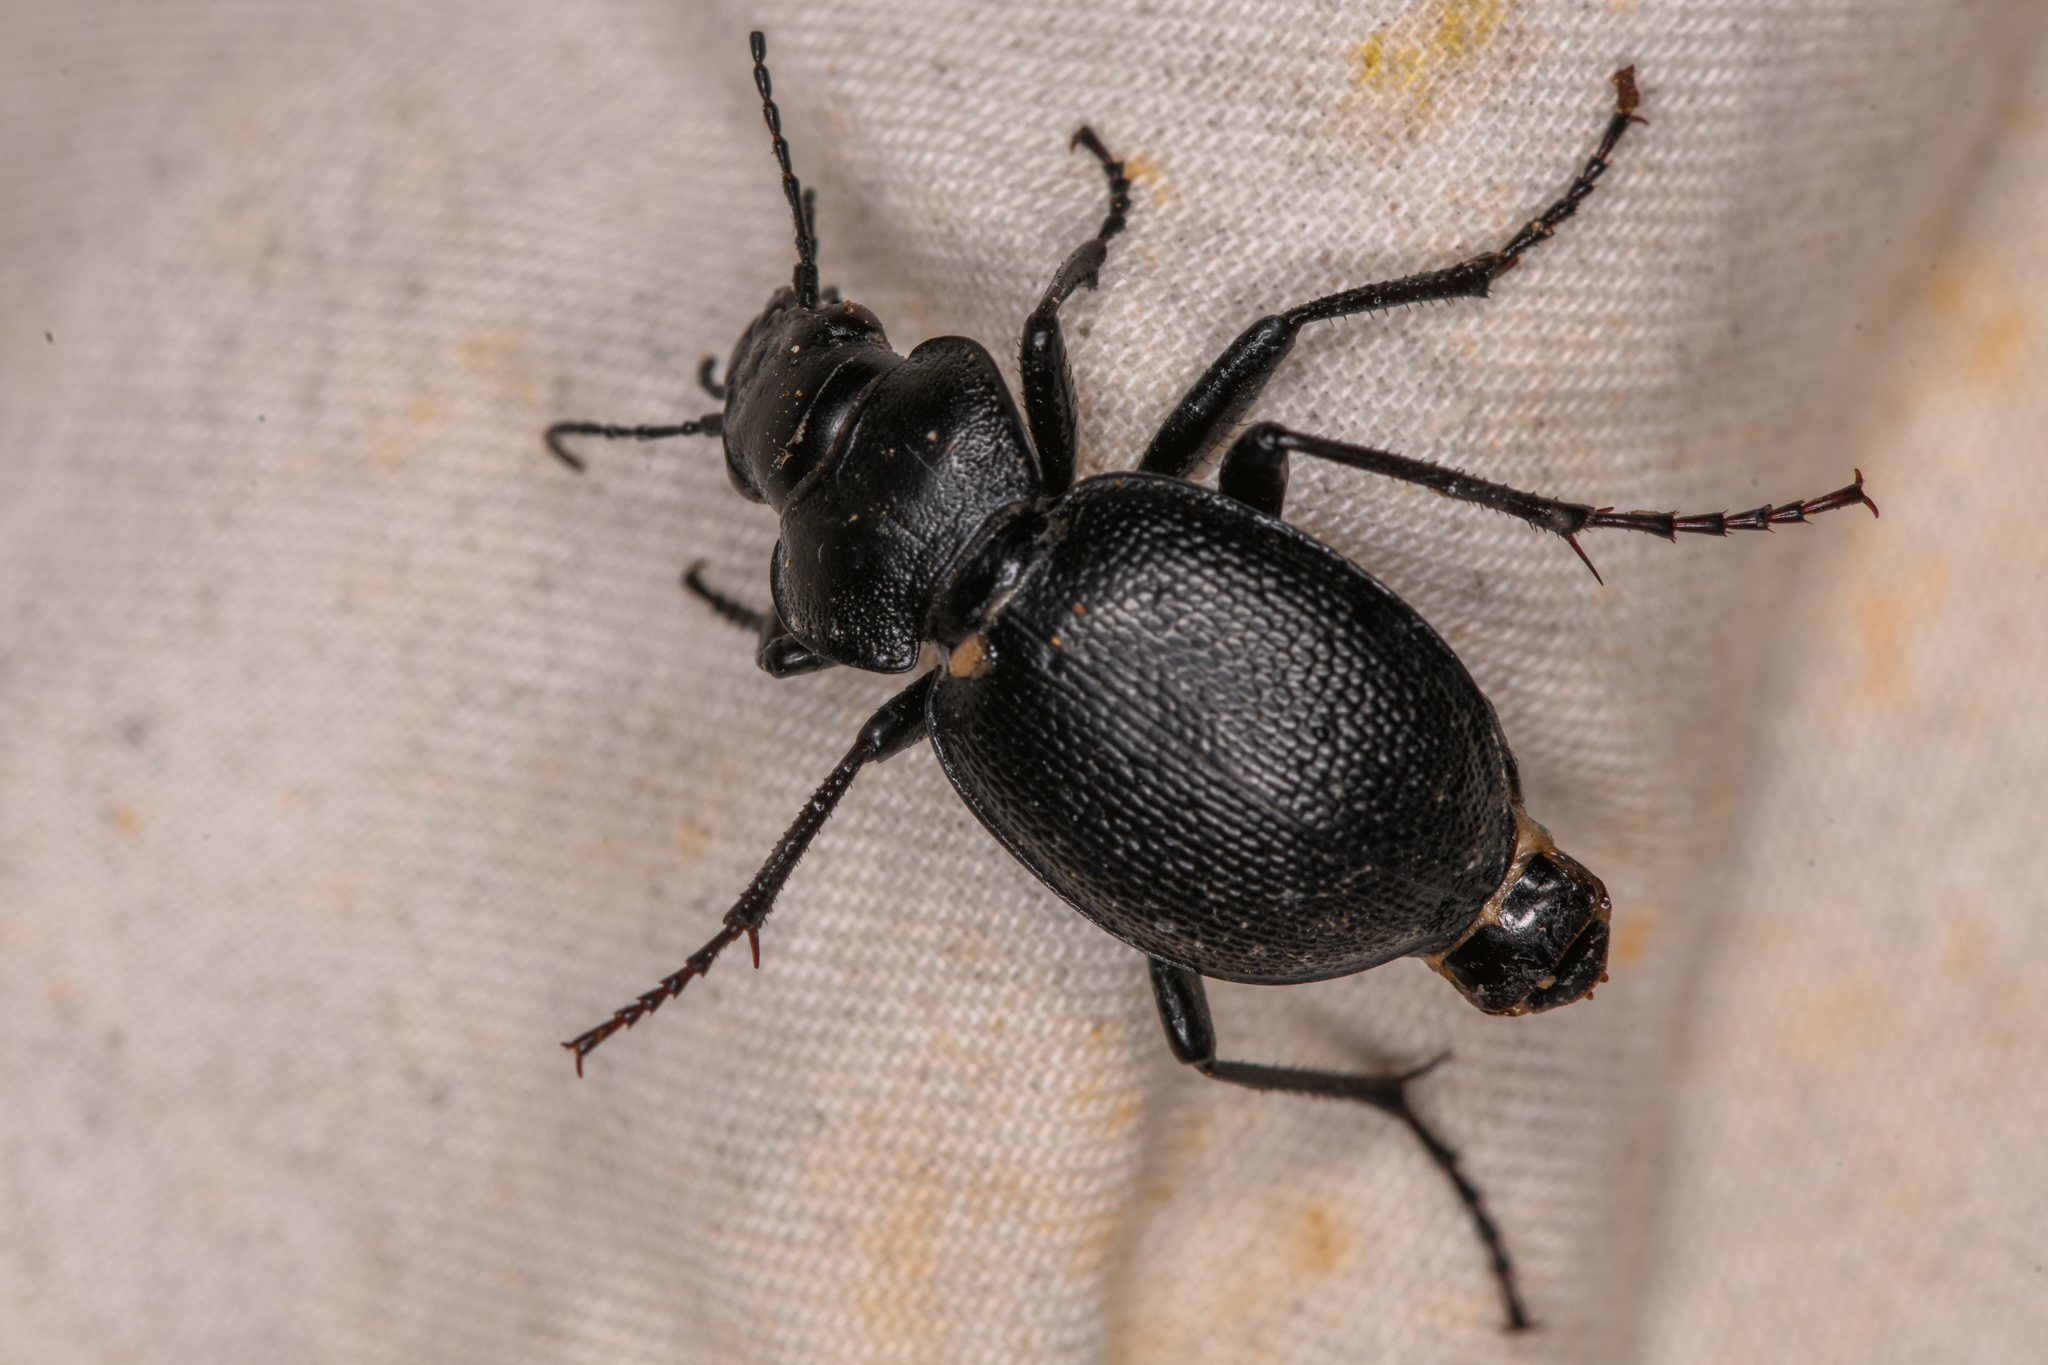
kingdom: Animalia
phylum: Arthropoda
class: Insecta
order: Coleoptera
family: Carabidae
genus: Calosoma
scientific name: Calosoma luxatum
